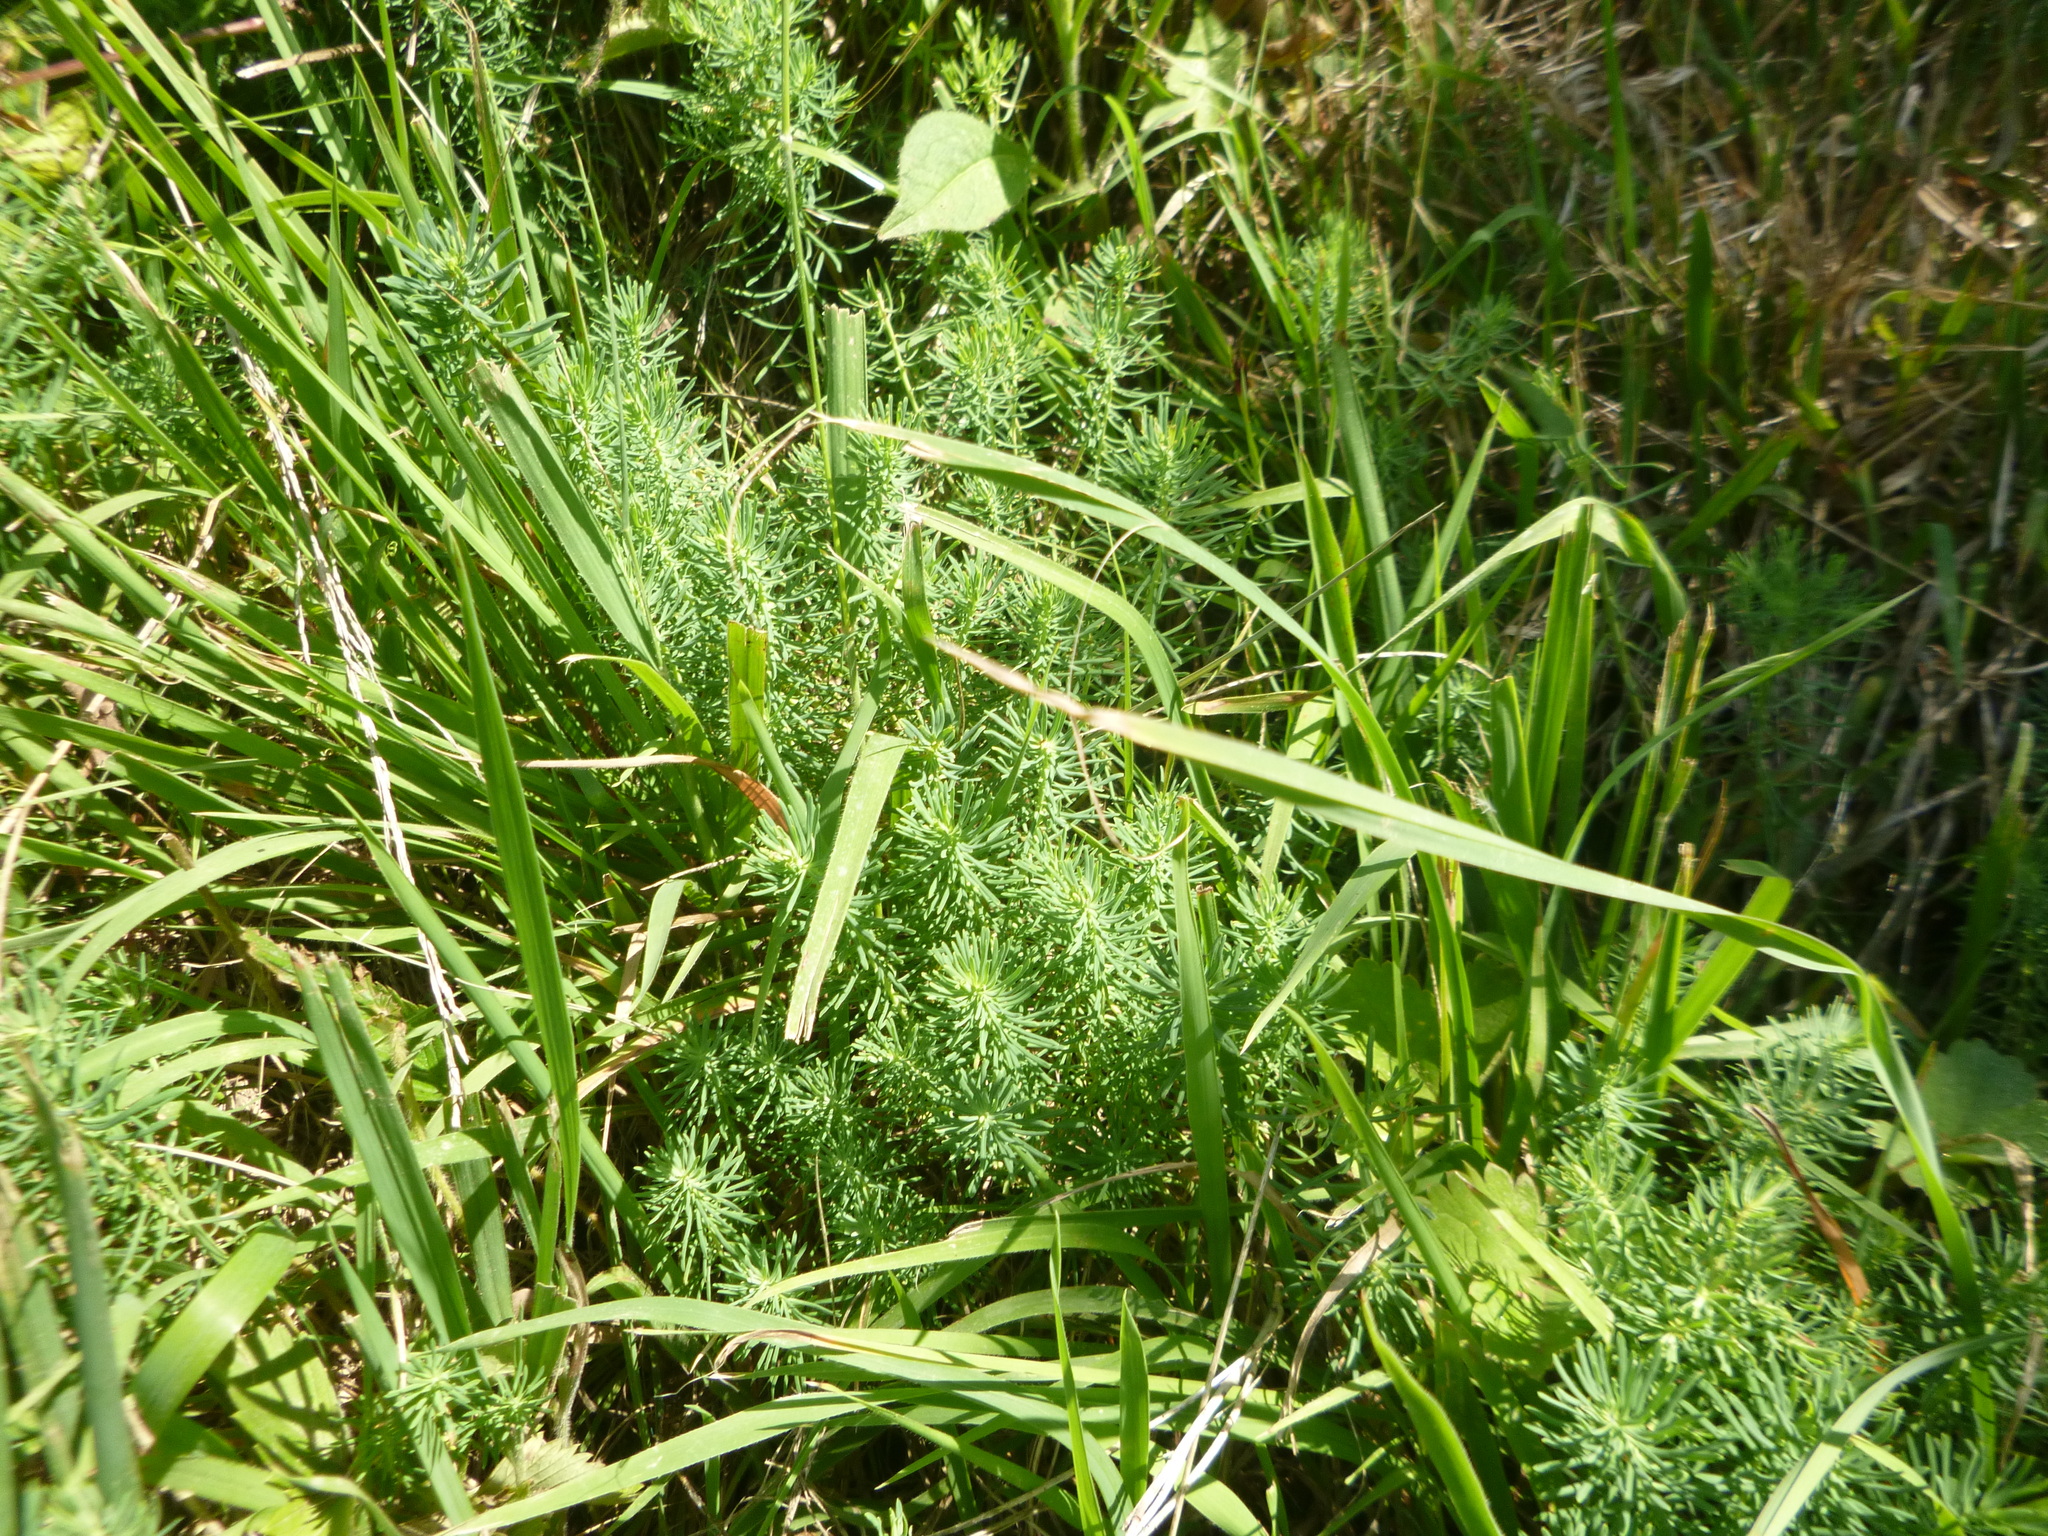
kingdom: Plantae
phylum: Tracheophyta
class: Magnoliopsida
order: Malpighiales
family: Euphorbiaceae
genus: Euphorbia
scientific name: Euphorbia cyparissias
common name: Cypress spurge
